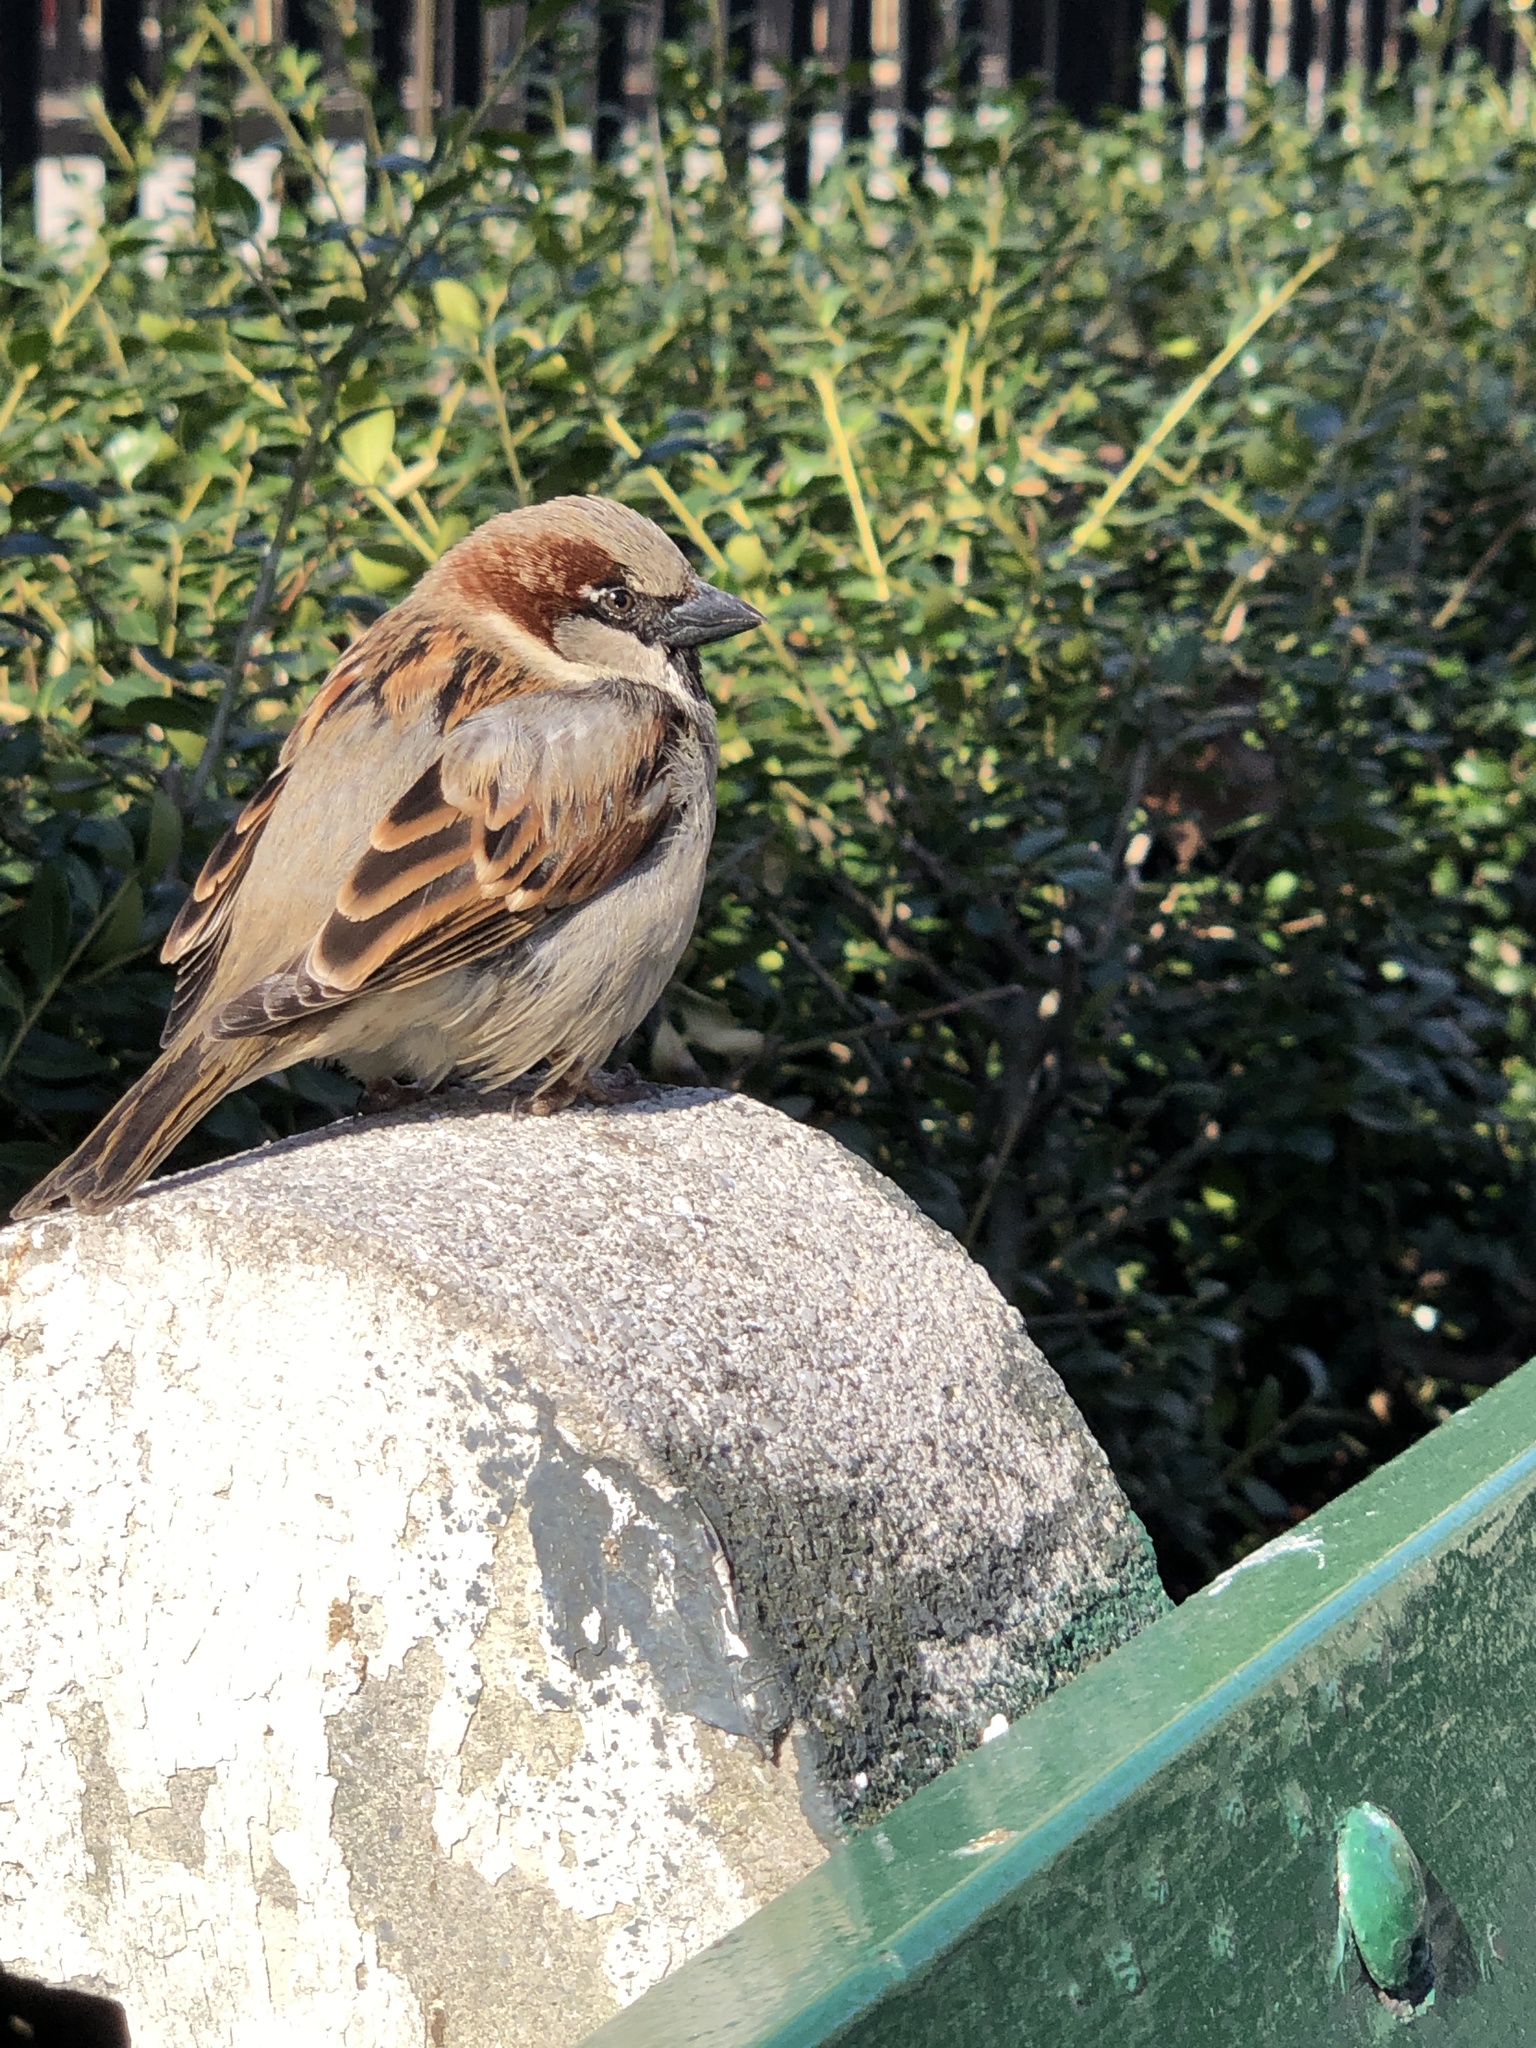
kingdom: Animalia
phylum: Chordata
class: Aves
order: Passeriformes
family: Passeridae
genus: Passer
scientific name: Passer domesticus
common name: House sparrow
